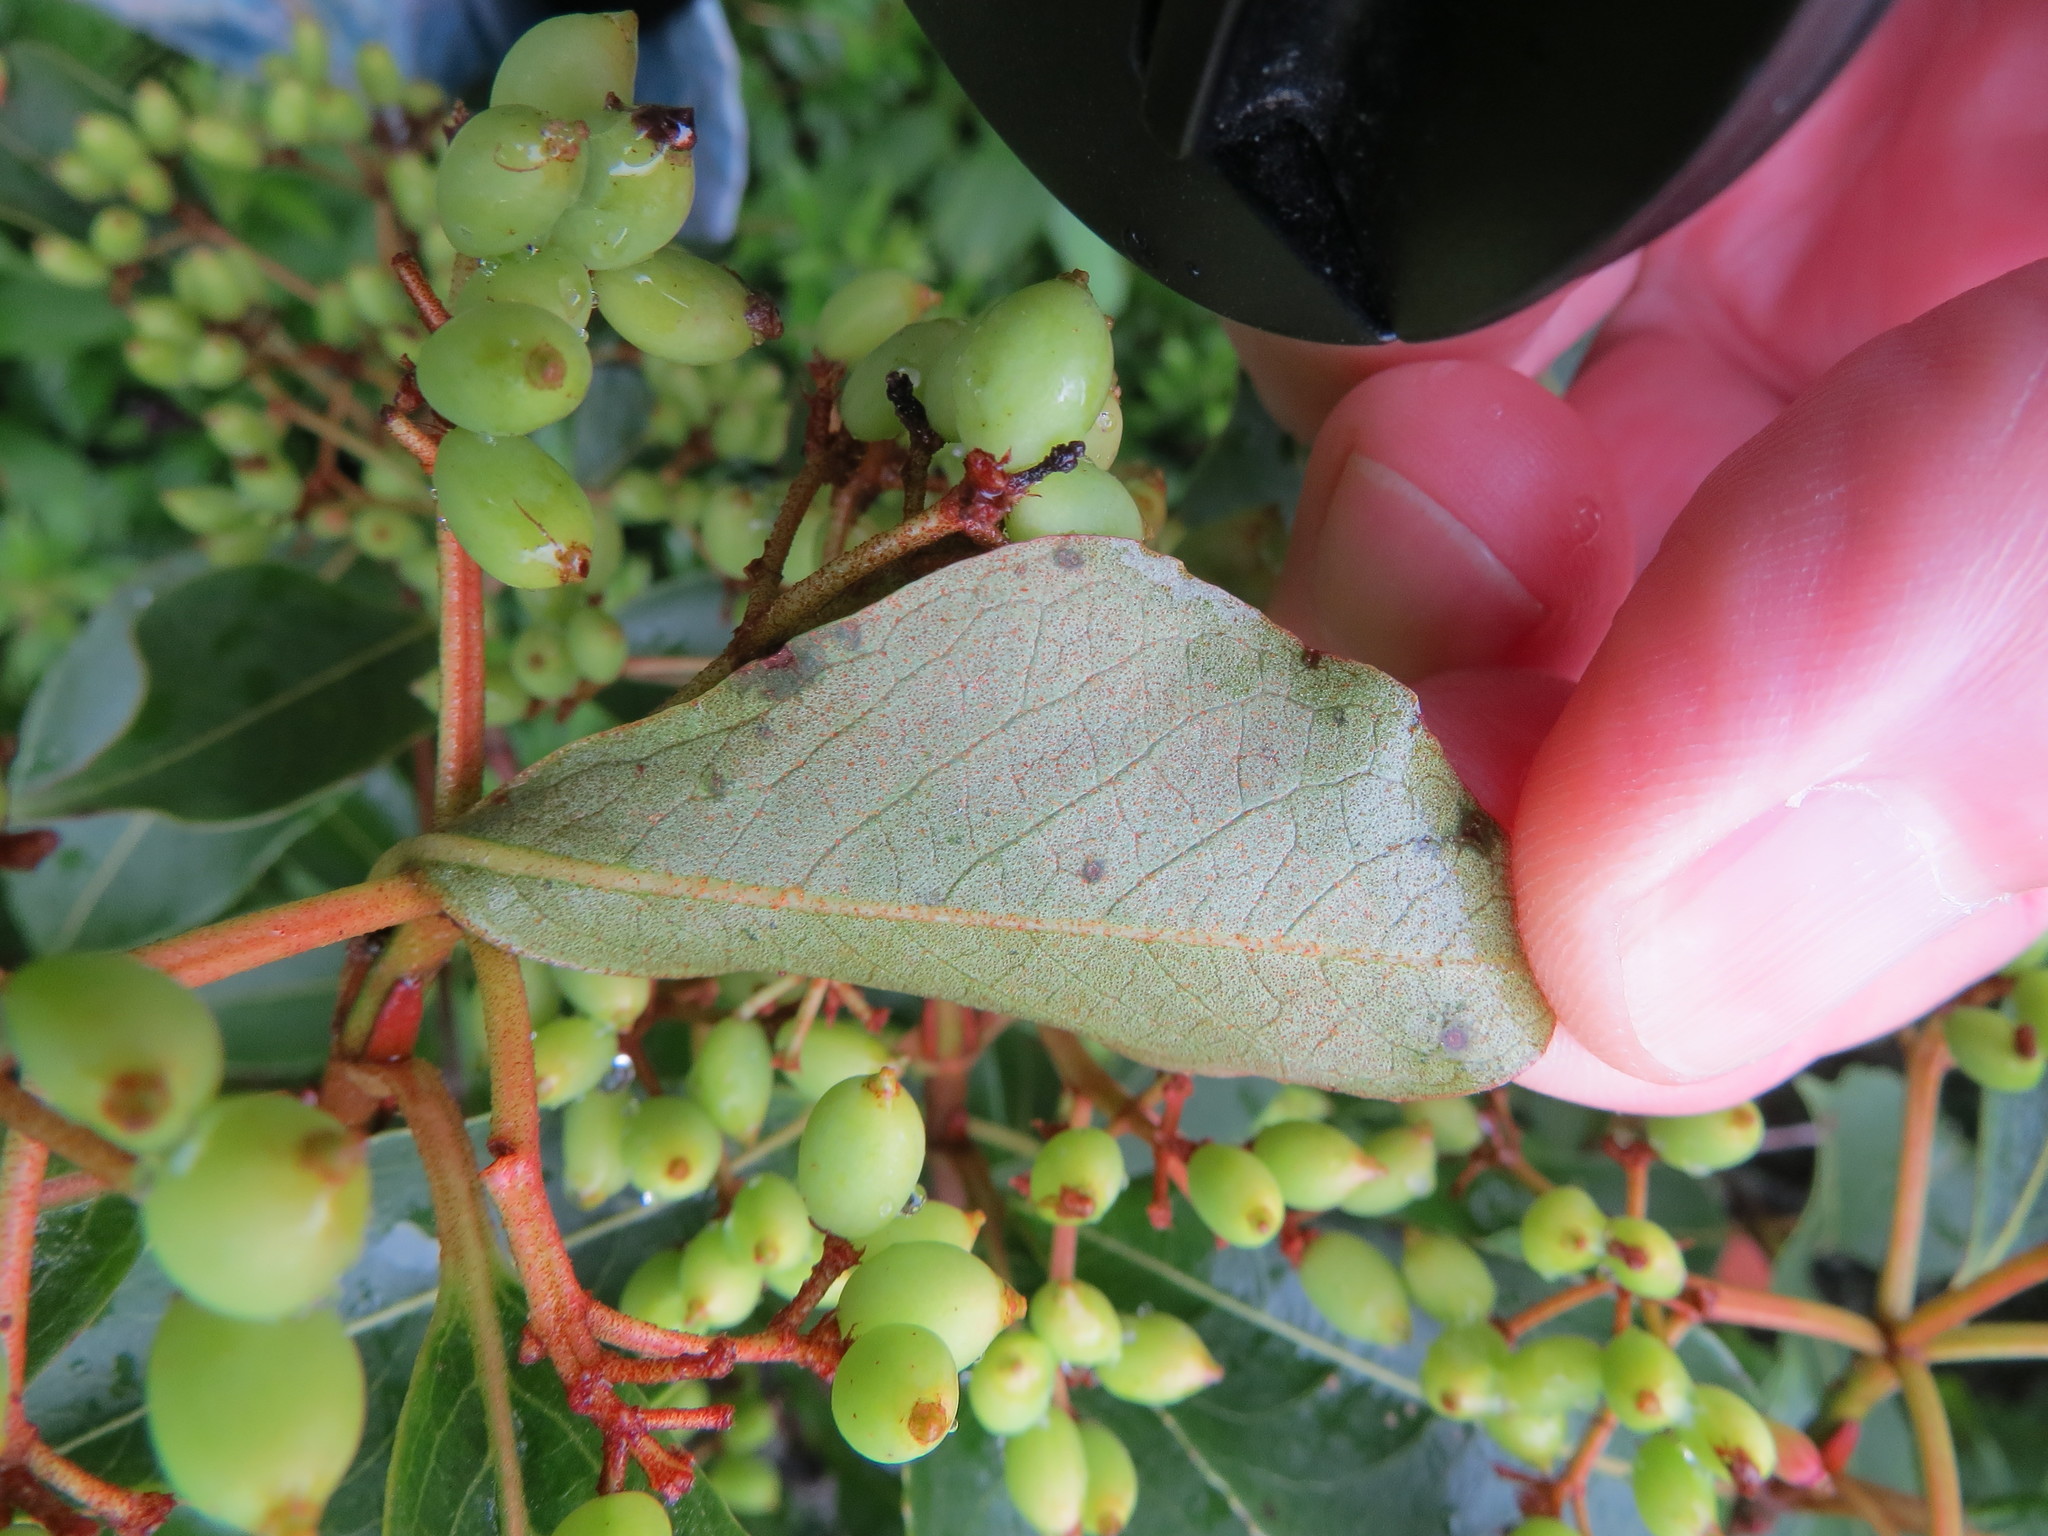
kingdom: Plantae
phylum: Tracheophyta
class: Magnoliopsida
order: Dipsacales
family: Viburnaceae
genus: Viburnum
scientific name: Viburnum cassinoides
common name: Swamp haw
